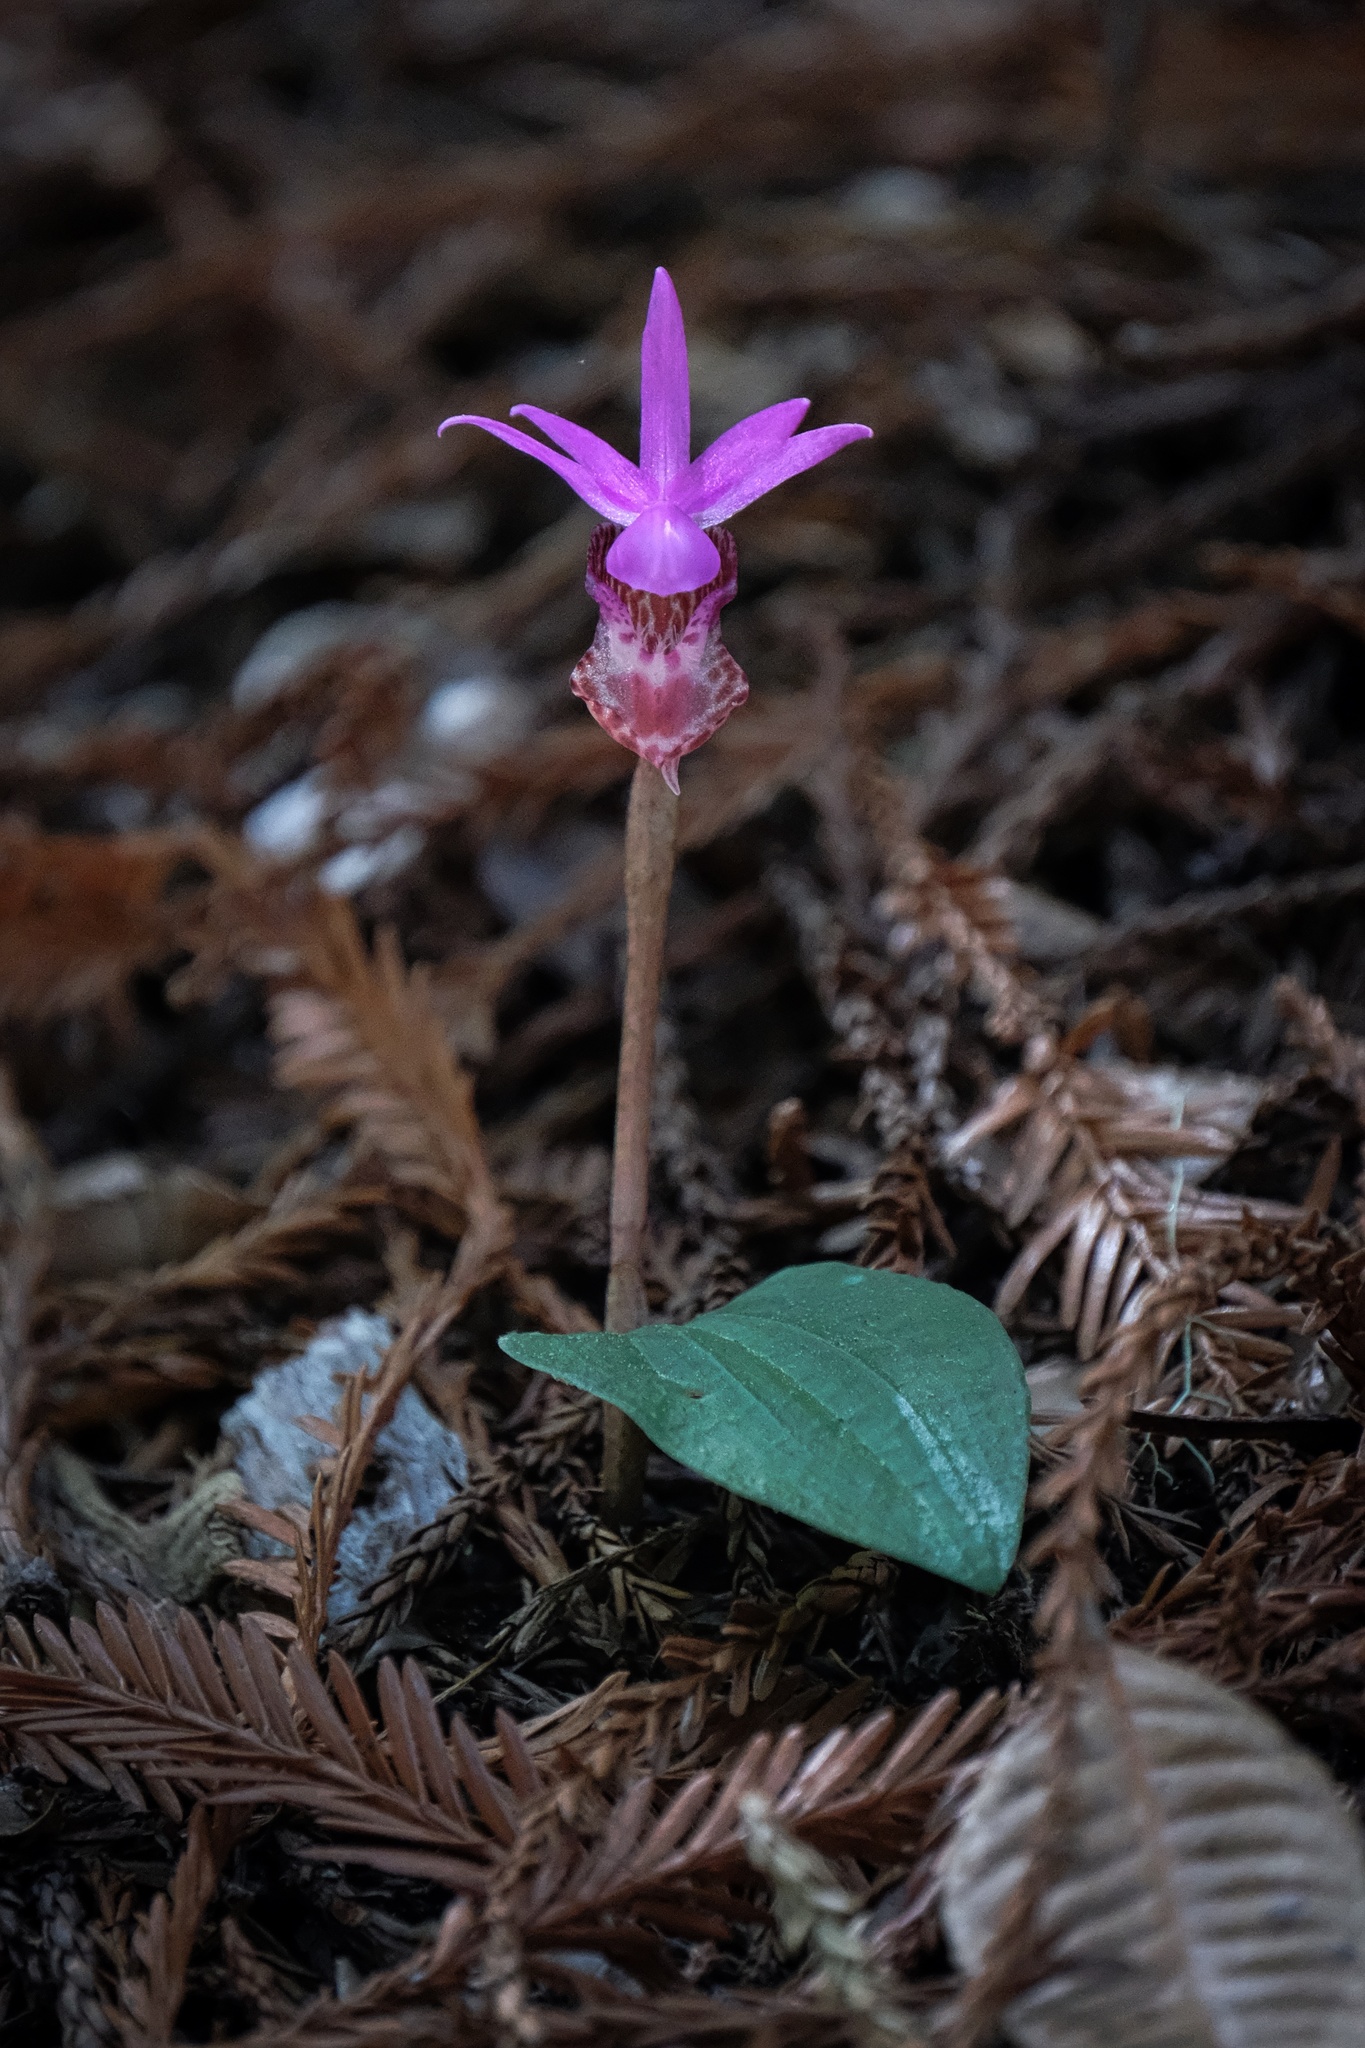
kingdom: Plantae
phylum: Tracheophyta
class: Liliopsida
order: Asparagales
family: Orchidaceae
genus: Calypso
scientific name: Calypso bulbosa
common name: Calypso
